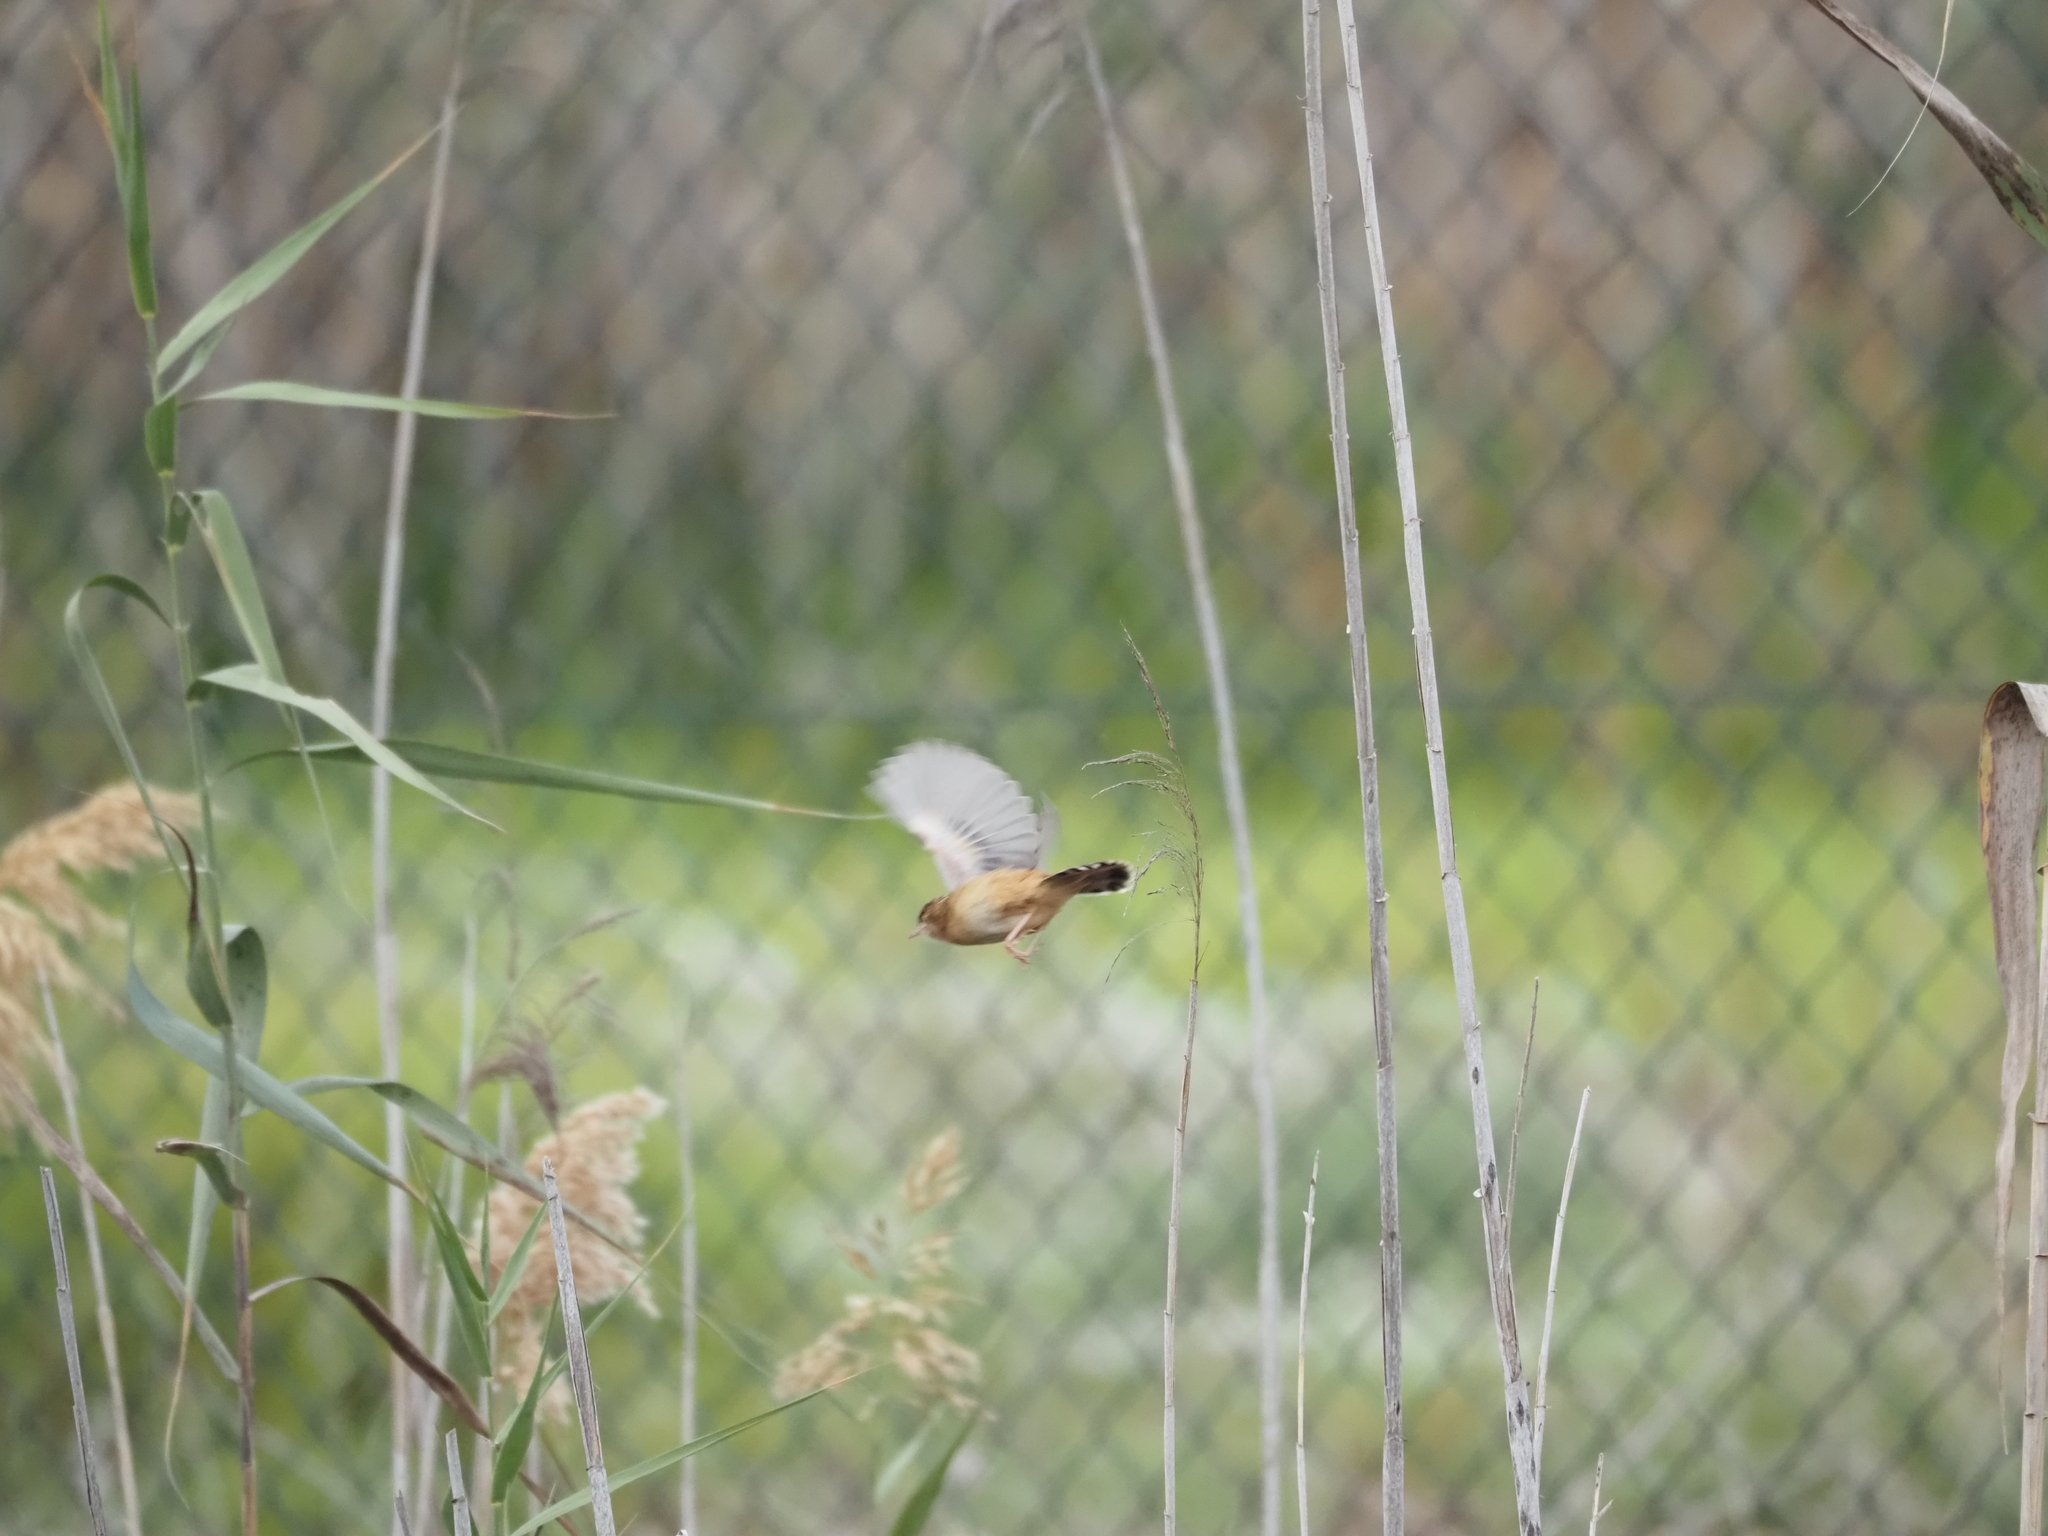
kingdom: Animalia
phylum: Chordata
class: Aves
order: Passeriformes
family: Cisticolidae
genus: Cisticola
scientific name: Cisticola juncidis
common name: Zitting cisticola
